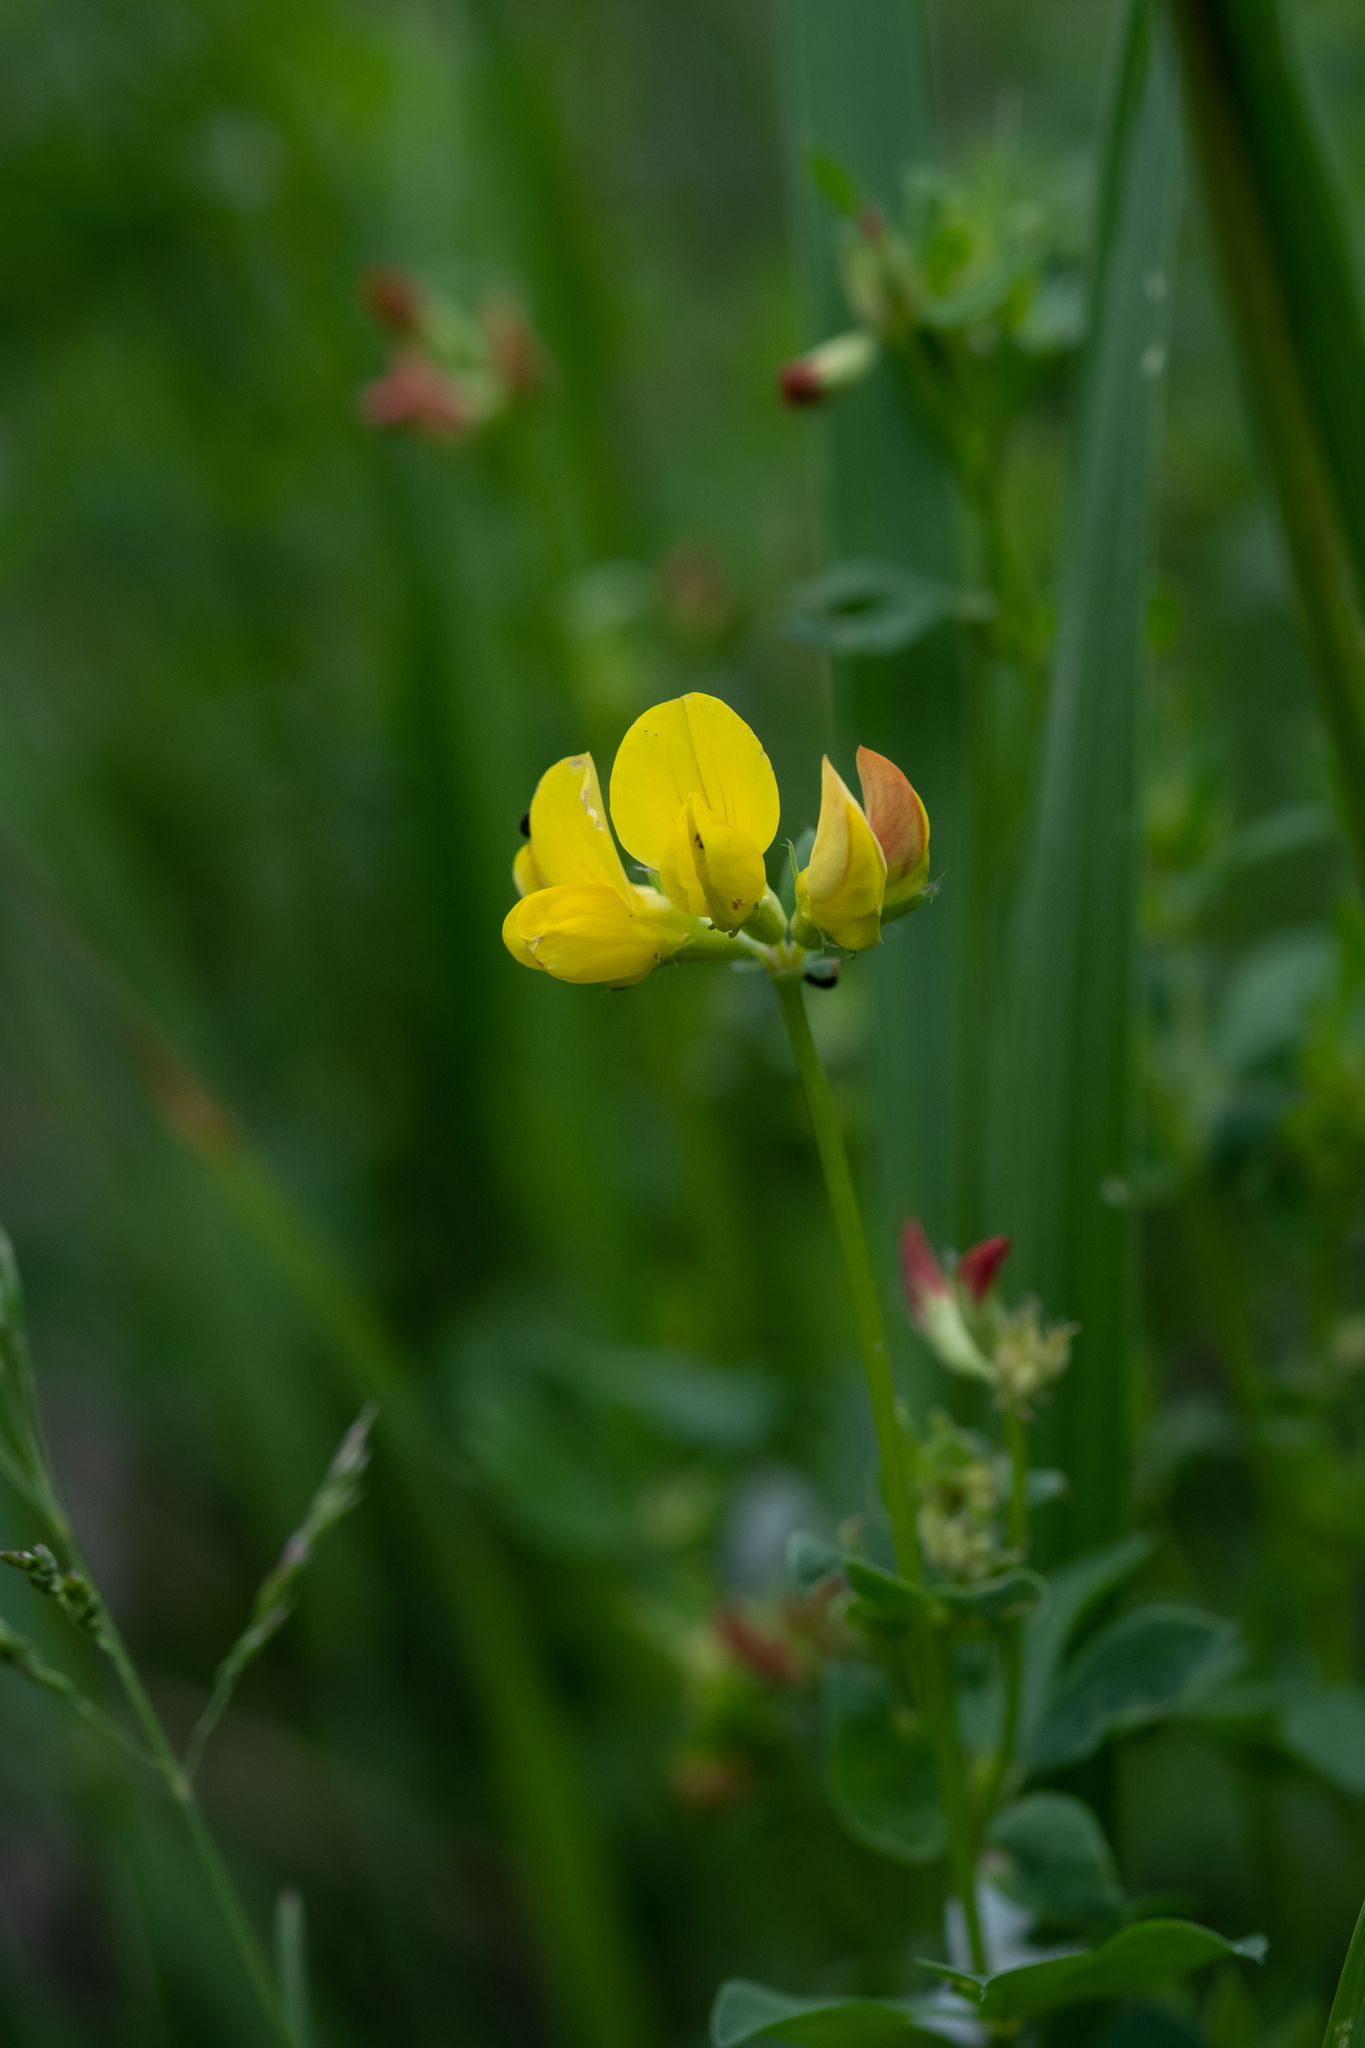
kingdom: Plantae
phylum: Tracheophyta
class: Magnoliopsida
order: Fabales
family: Fabaceae
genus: Lotus
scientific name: Lotus corniculatus
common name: Common bird's-foot-trefoil
